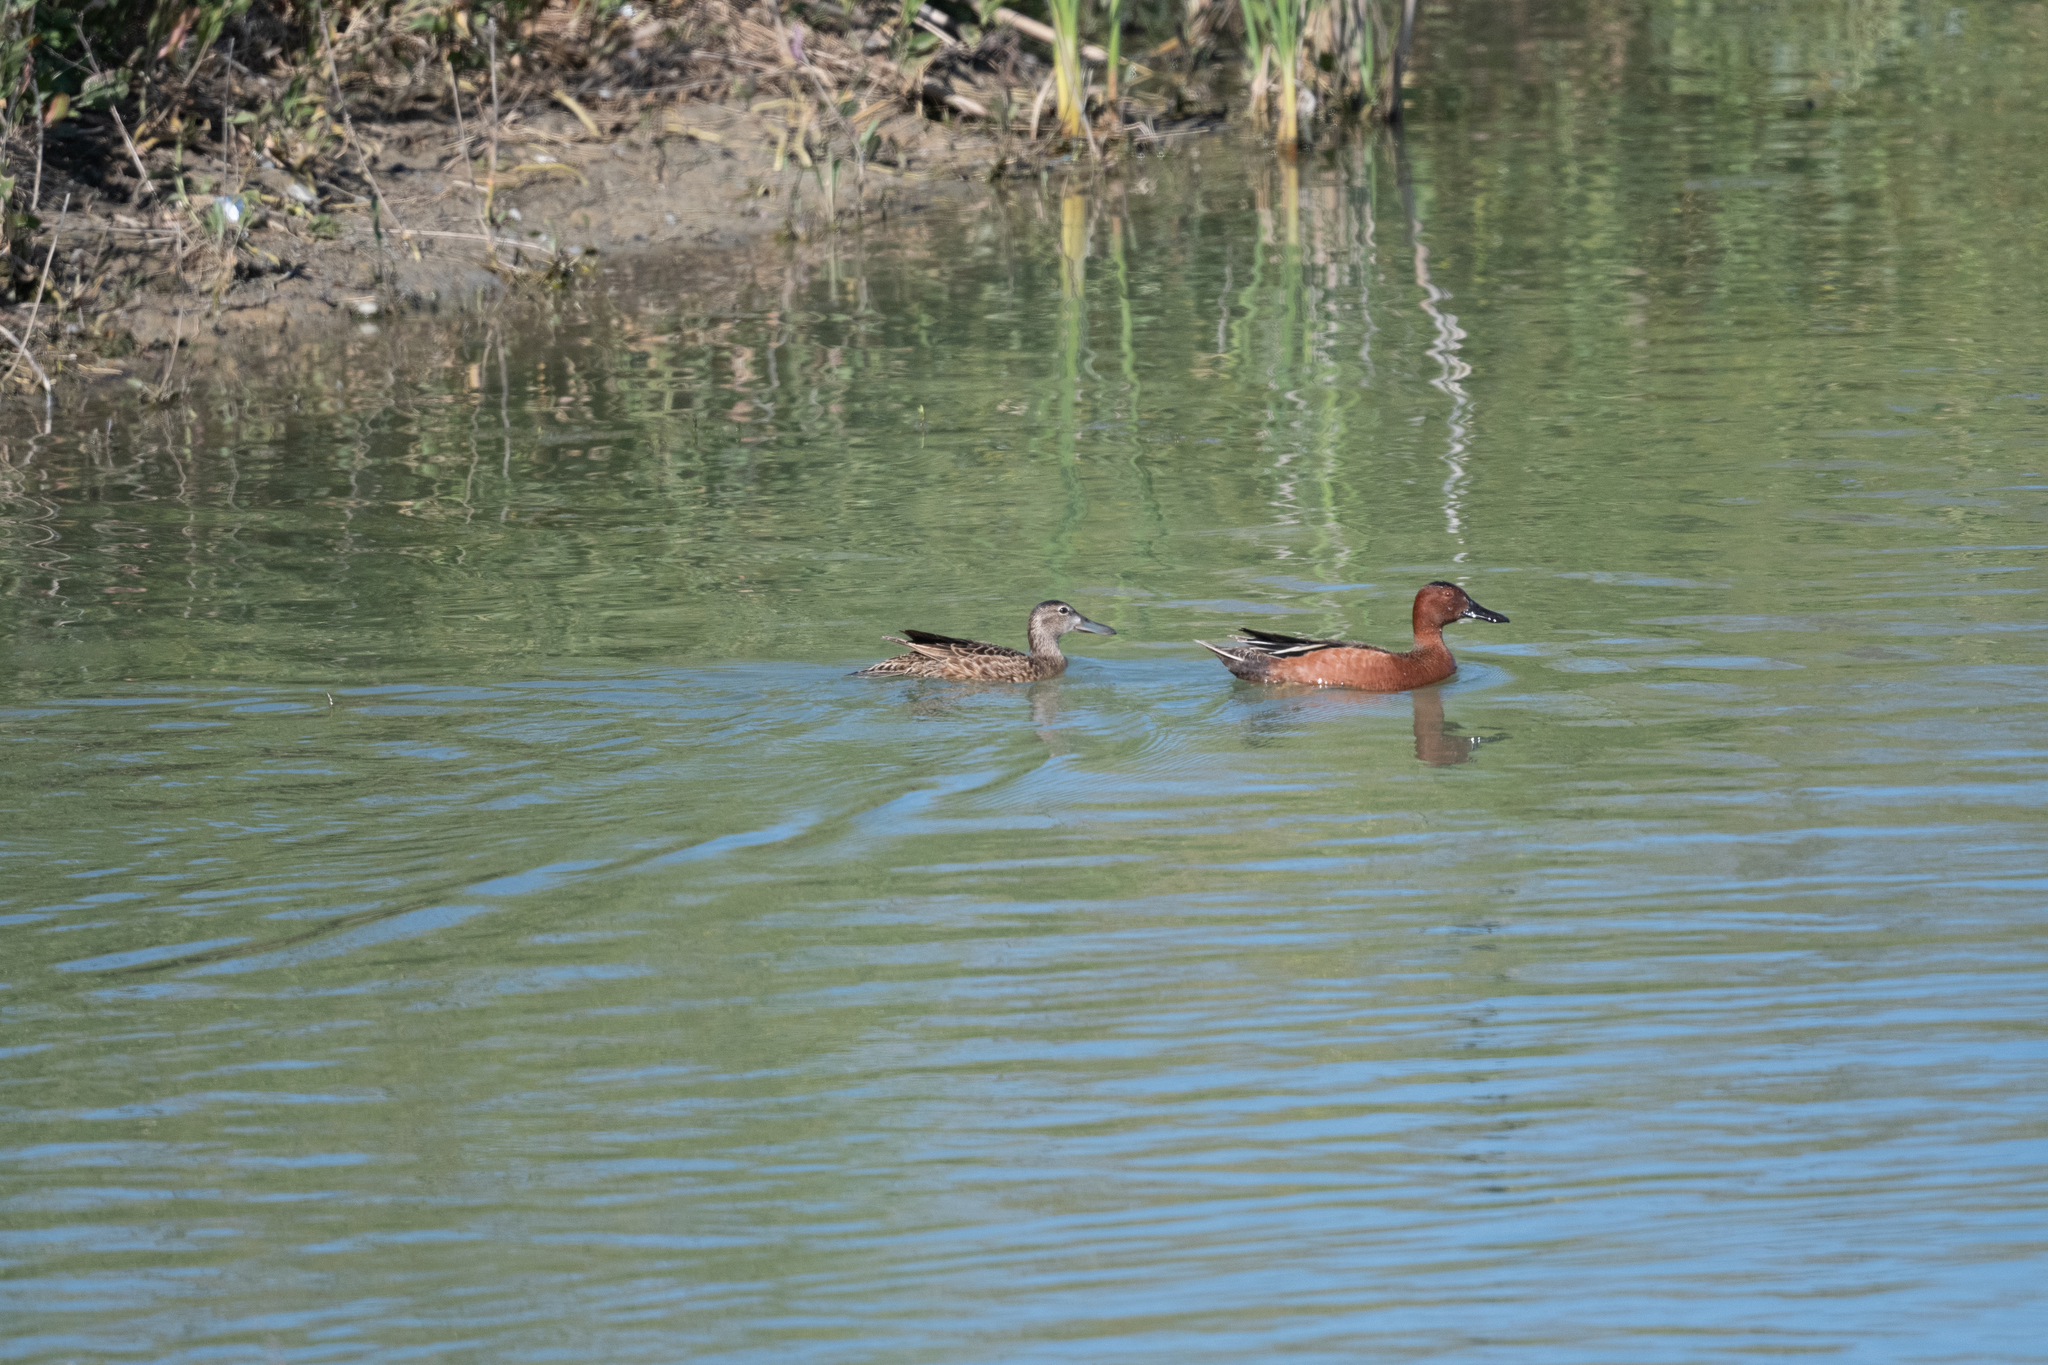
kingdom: Animalia
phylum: Chordata
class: Aves
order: Anseriformes
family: Anatidae
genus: Spatula
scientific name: Spatula cyanoptera
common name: Cinnamon teal
